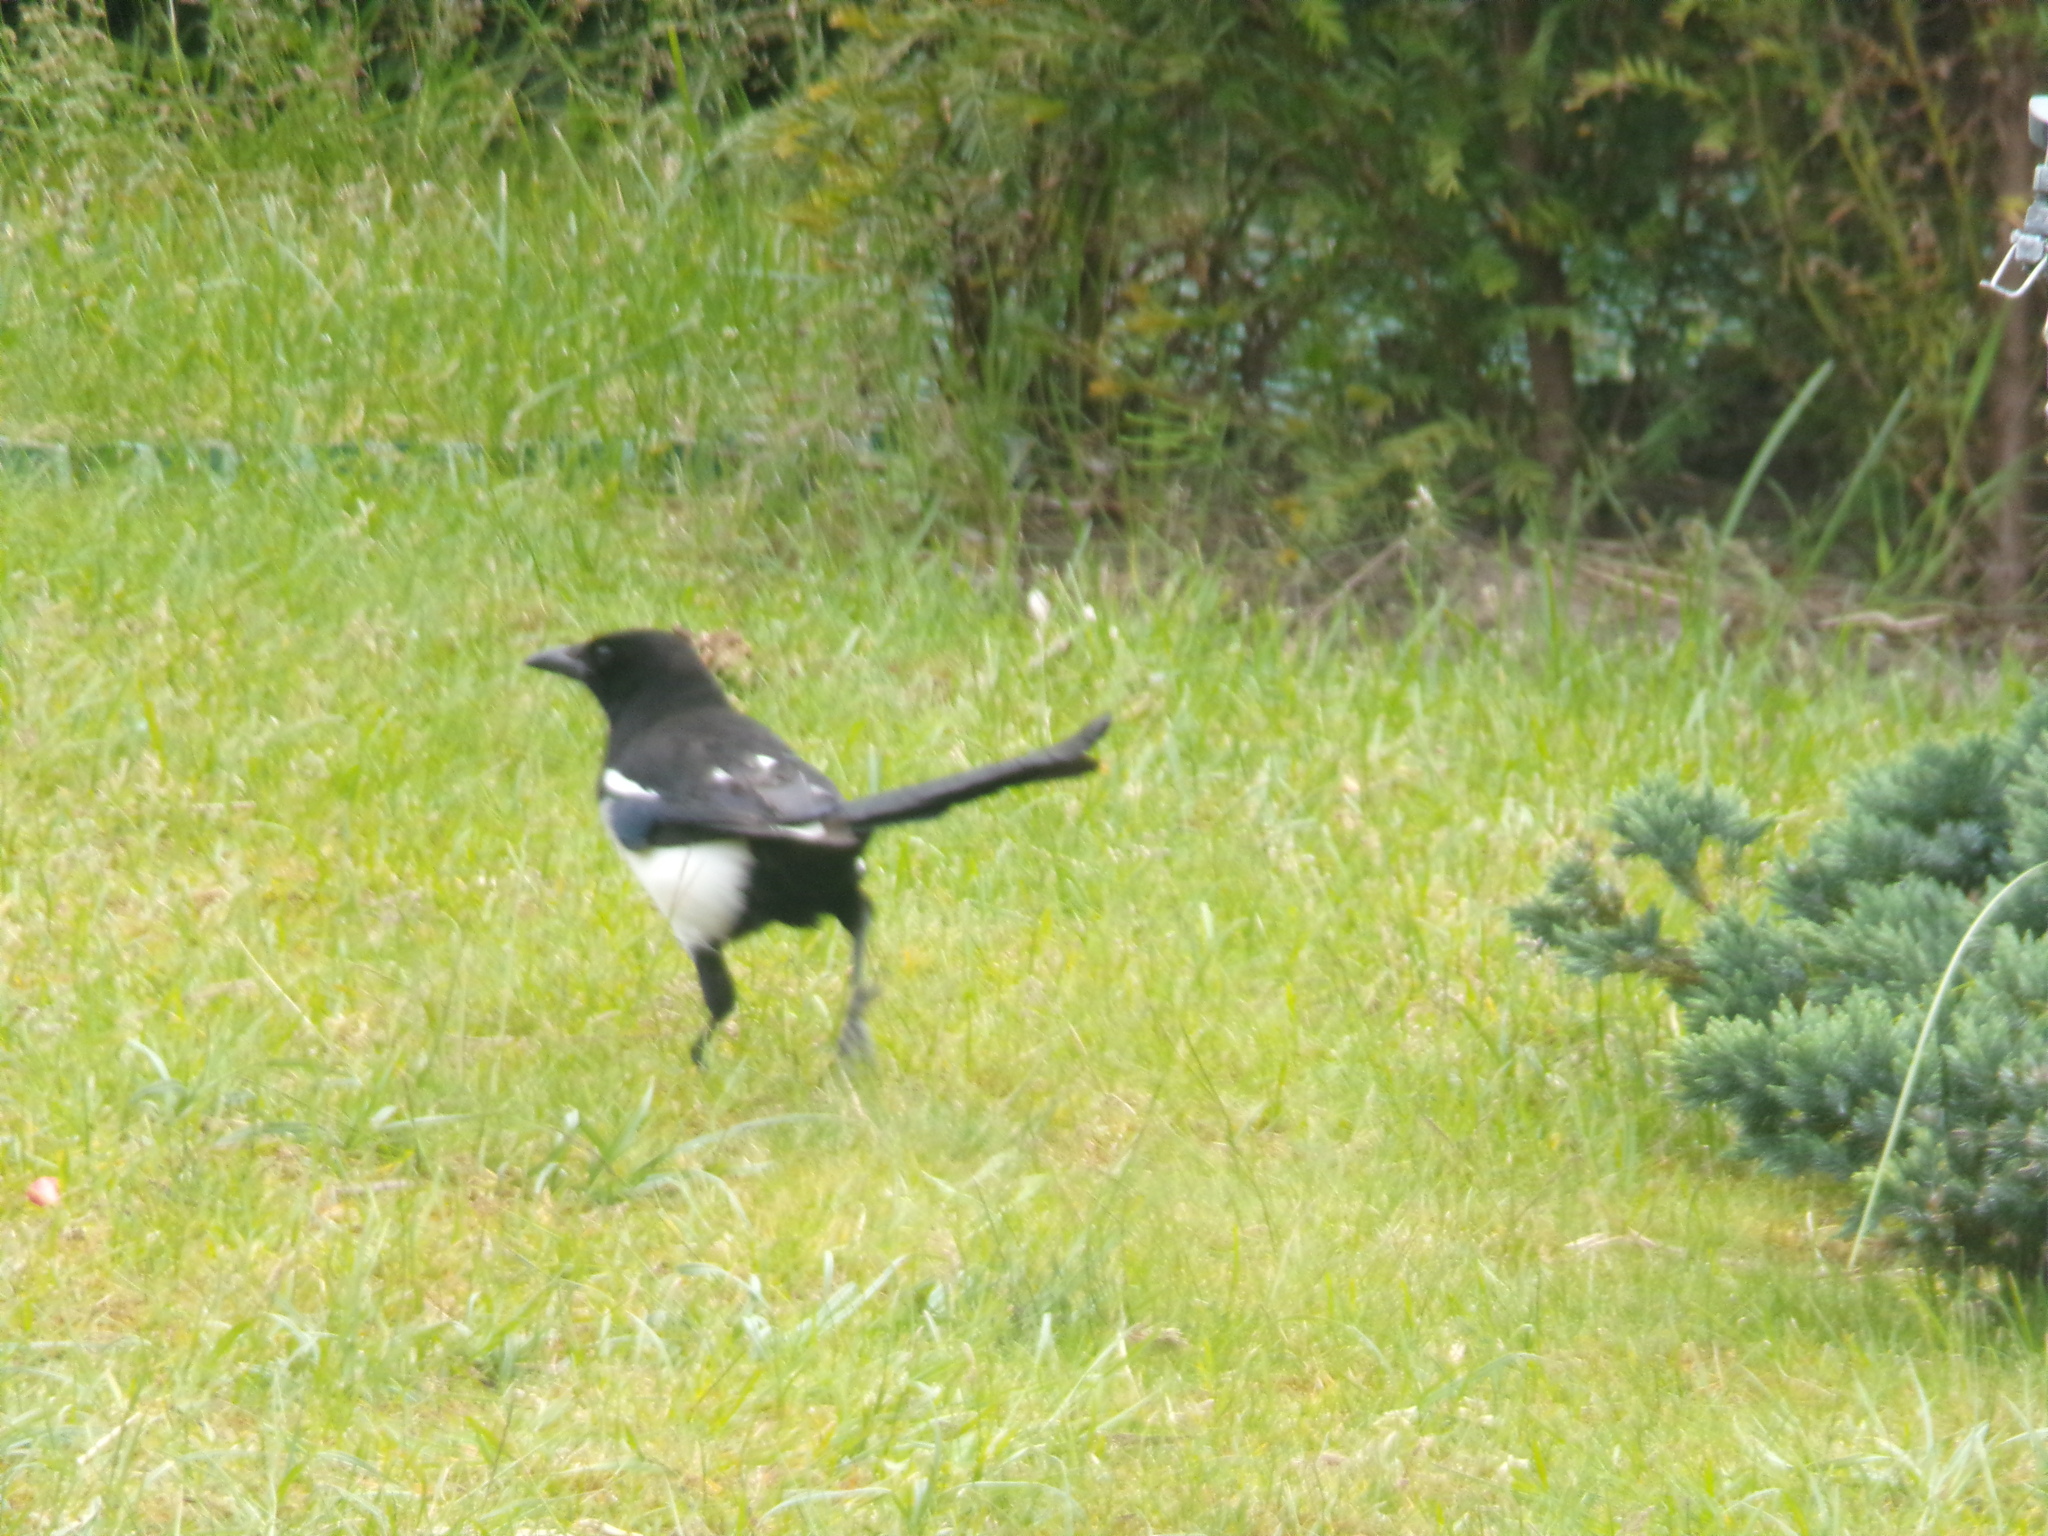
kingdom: Animalia
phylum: Chordata
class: Aves
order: Passeriformes
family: Corvidae
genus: Pica
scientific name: Pica pica
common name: Eurasian magpie
